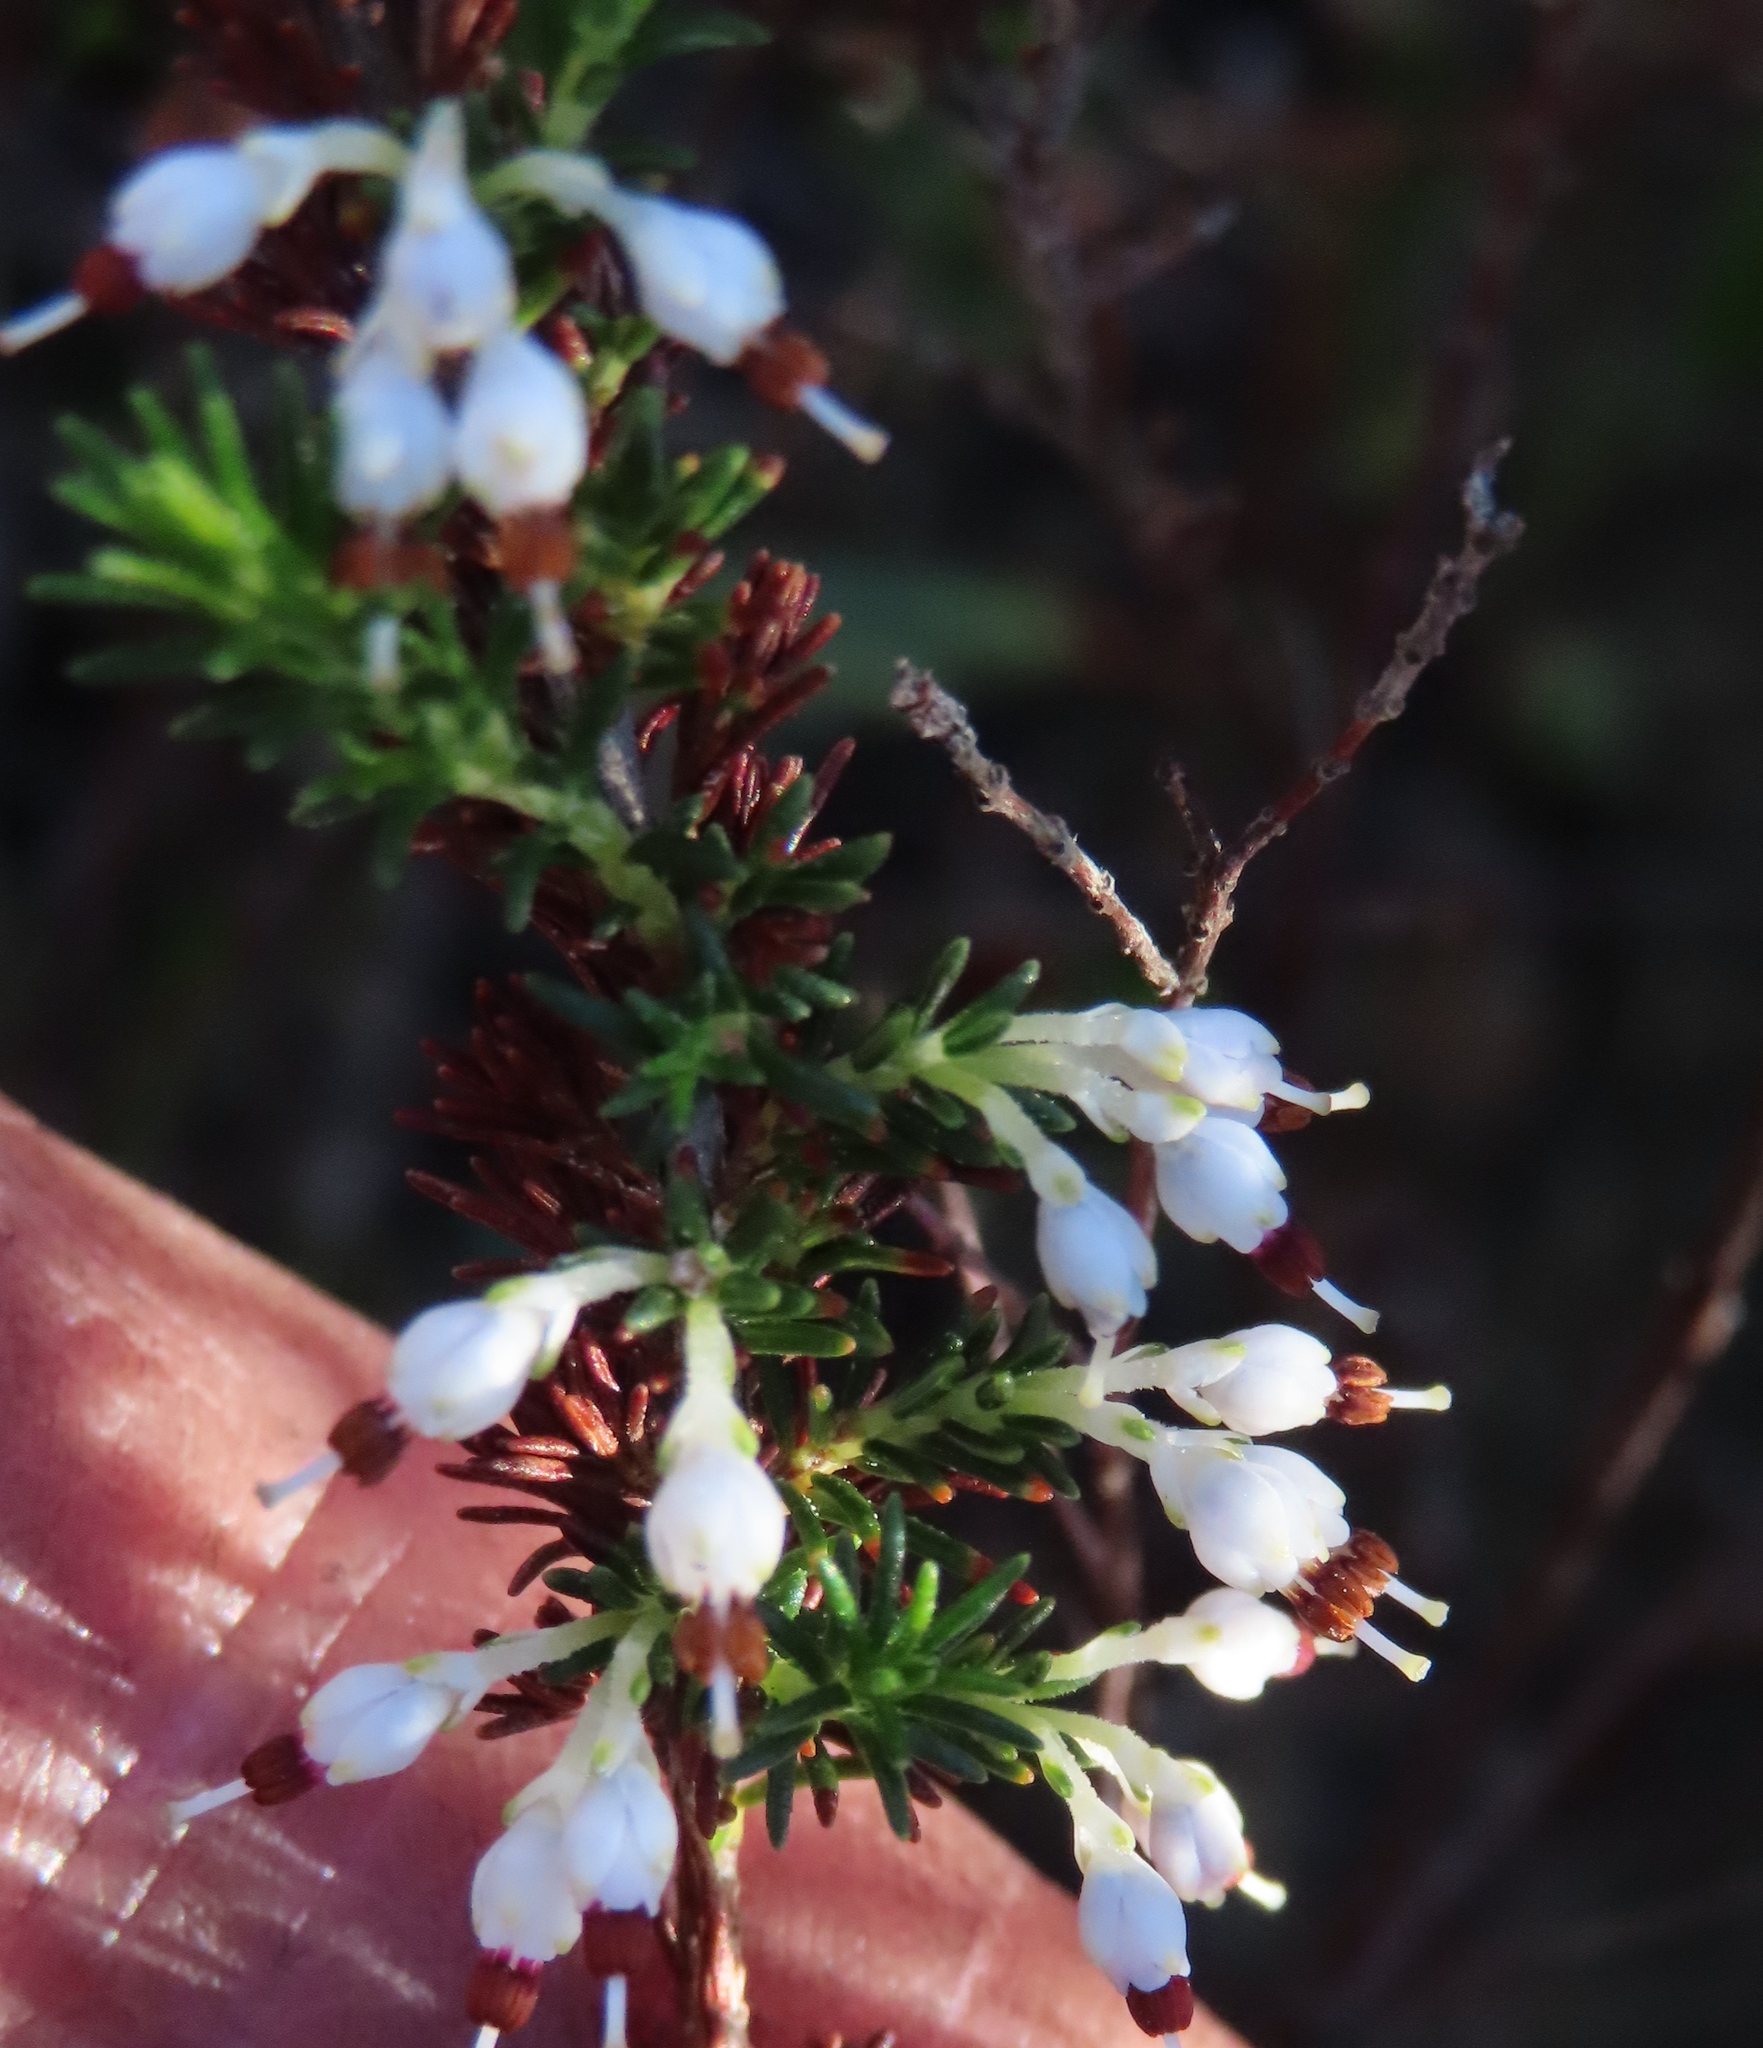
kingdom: Plantae
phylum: Tracheophyta
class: Magnoliopsida
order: Ericales
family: Ericaceae
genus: Erica
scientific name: Erica imbricata
